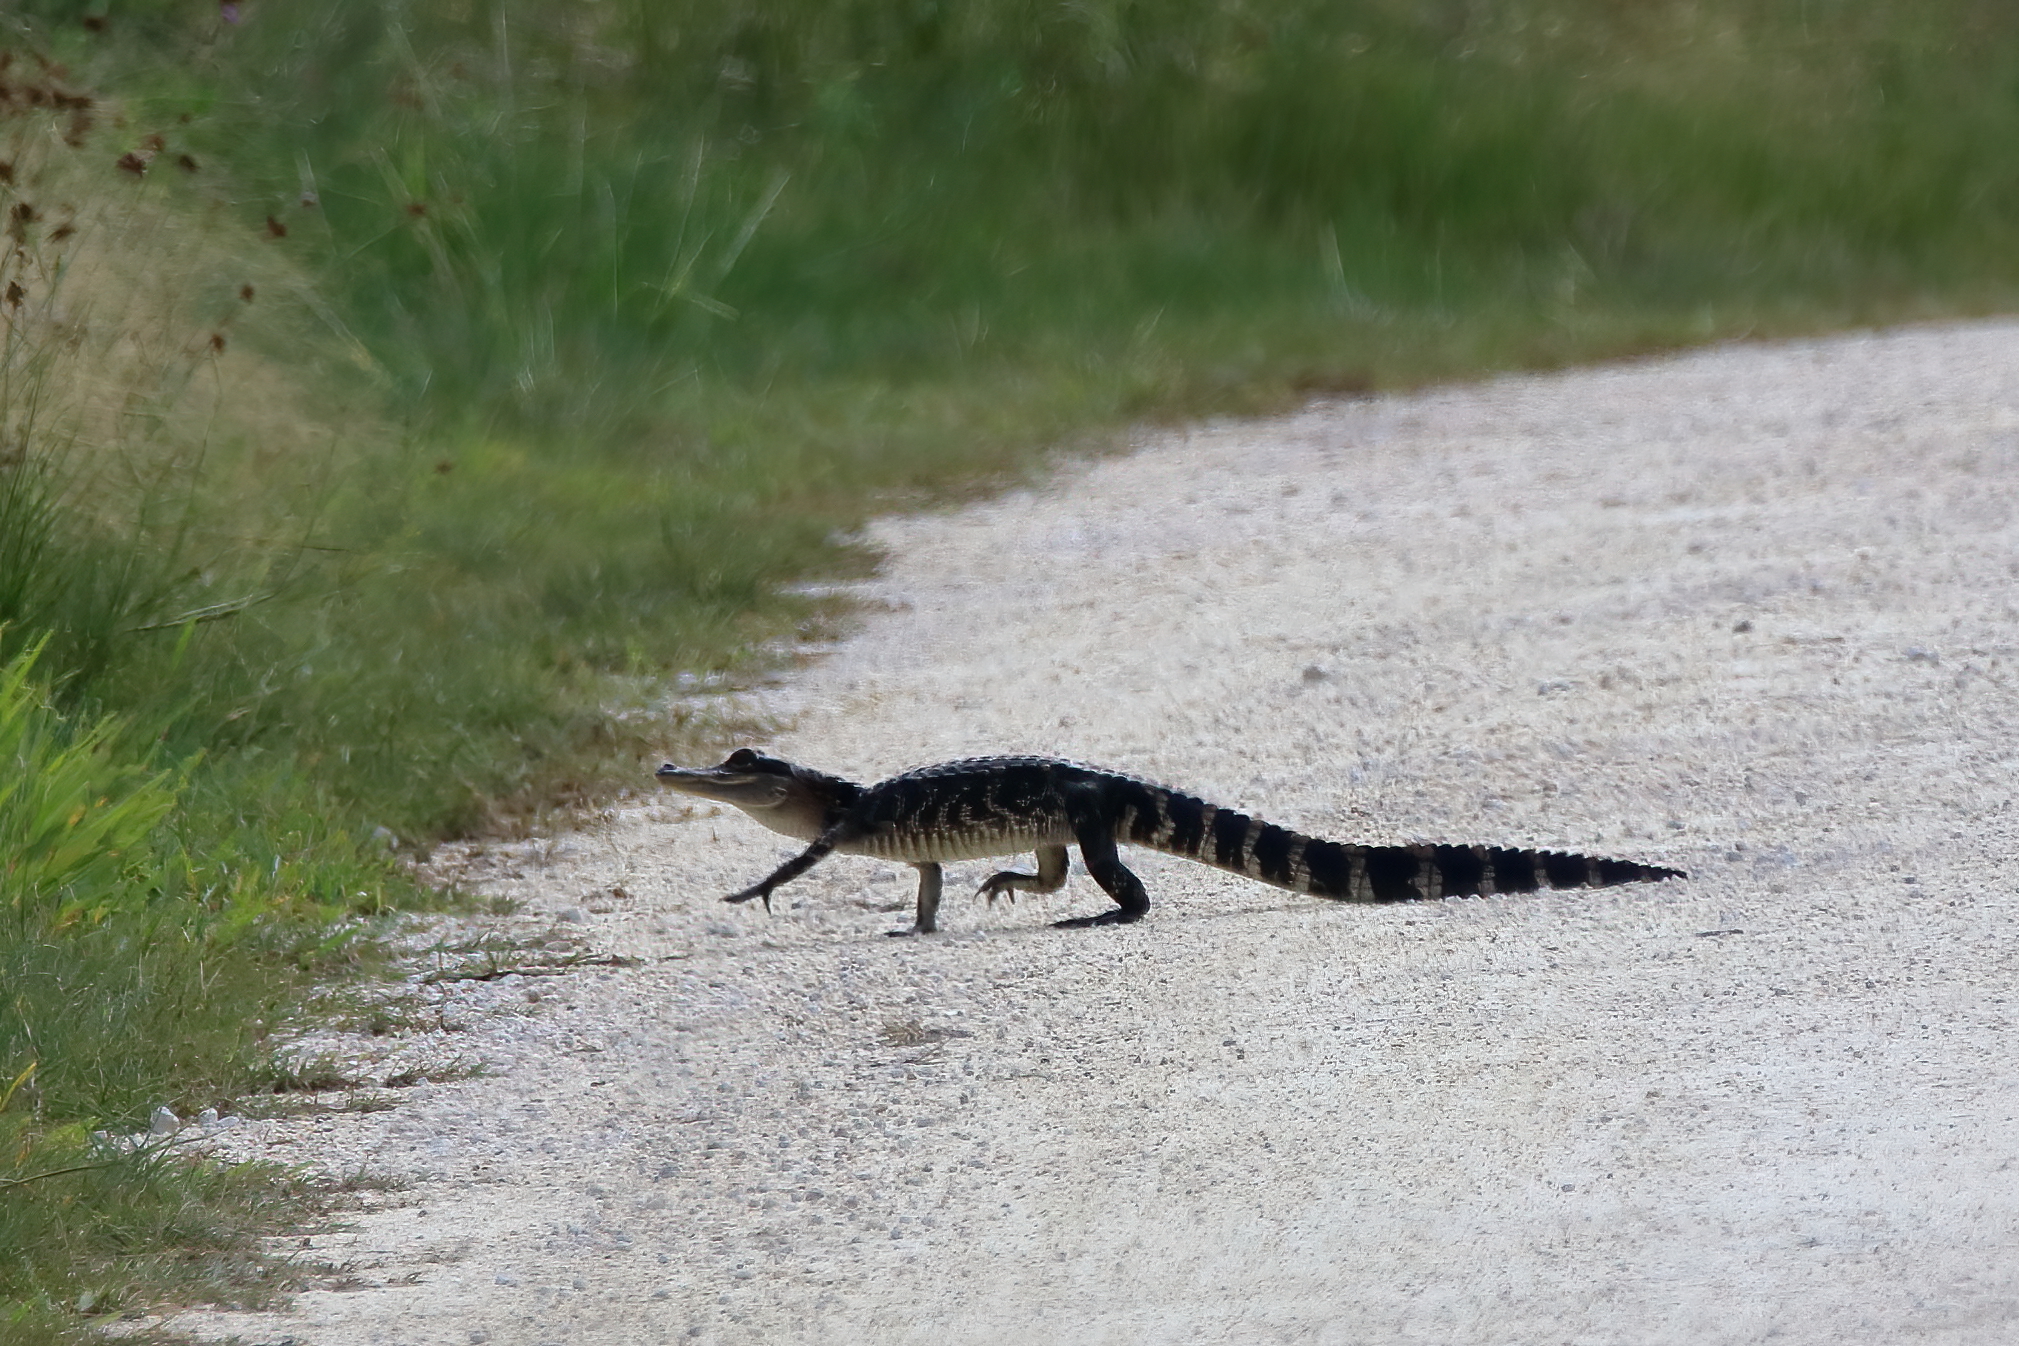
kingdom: Animalia
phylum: Chordata
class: Crocodylia
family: Alligatoridae
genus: Alligator
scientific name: Alligator mississippiensis
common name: American alligator
